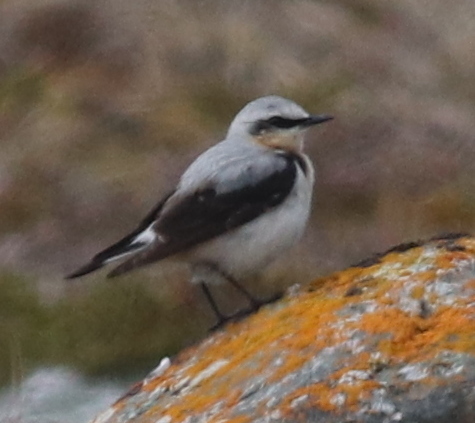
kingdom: Animalia
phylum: Chordata
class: Aves
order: Passeriformes
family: Muscicapidae
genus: Oenanthe
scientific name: Oenanthe oenanthe
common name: Northern wheatear
